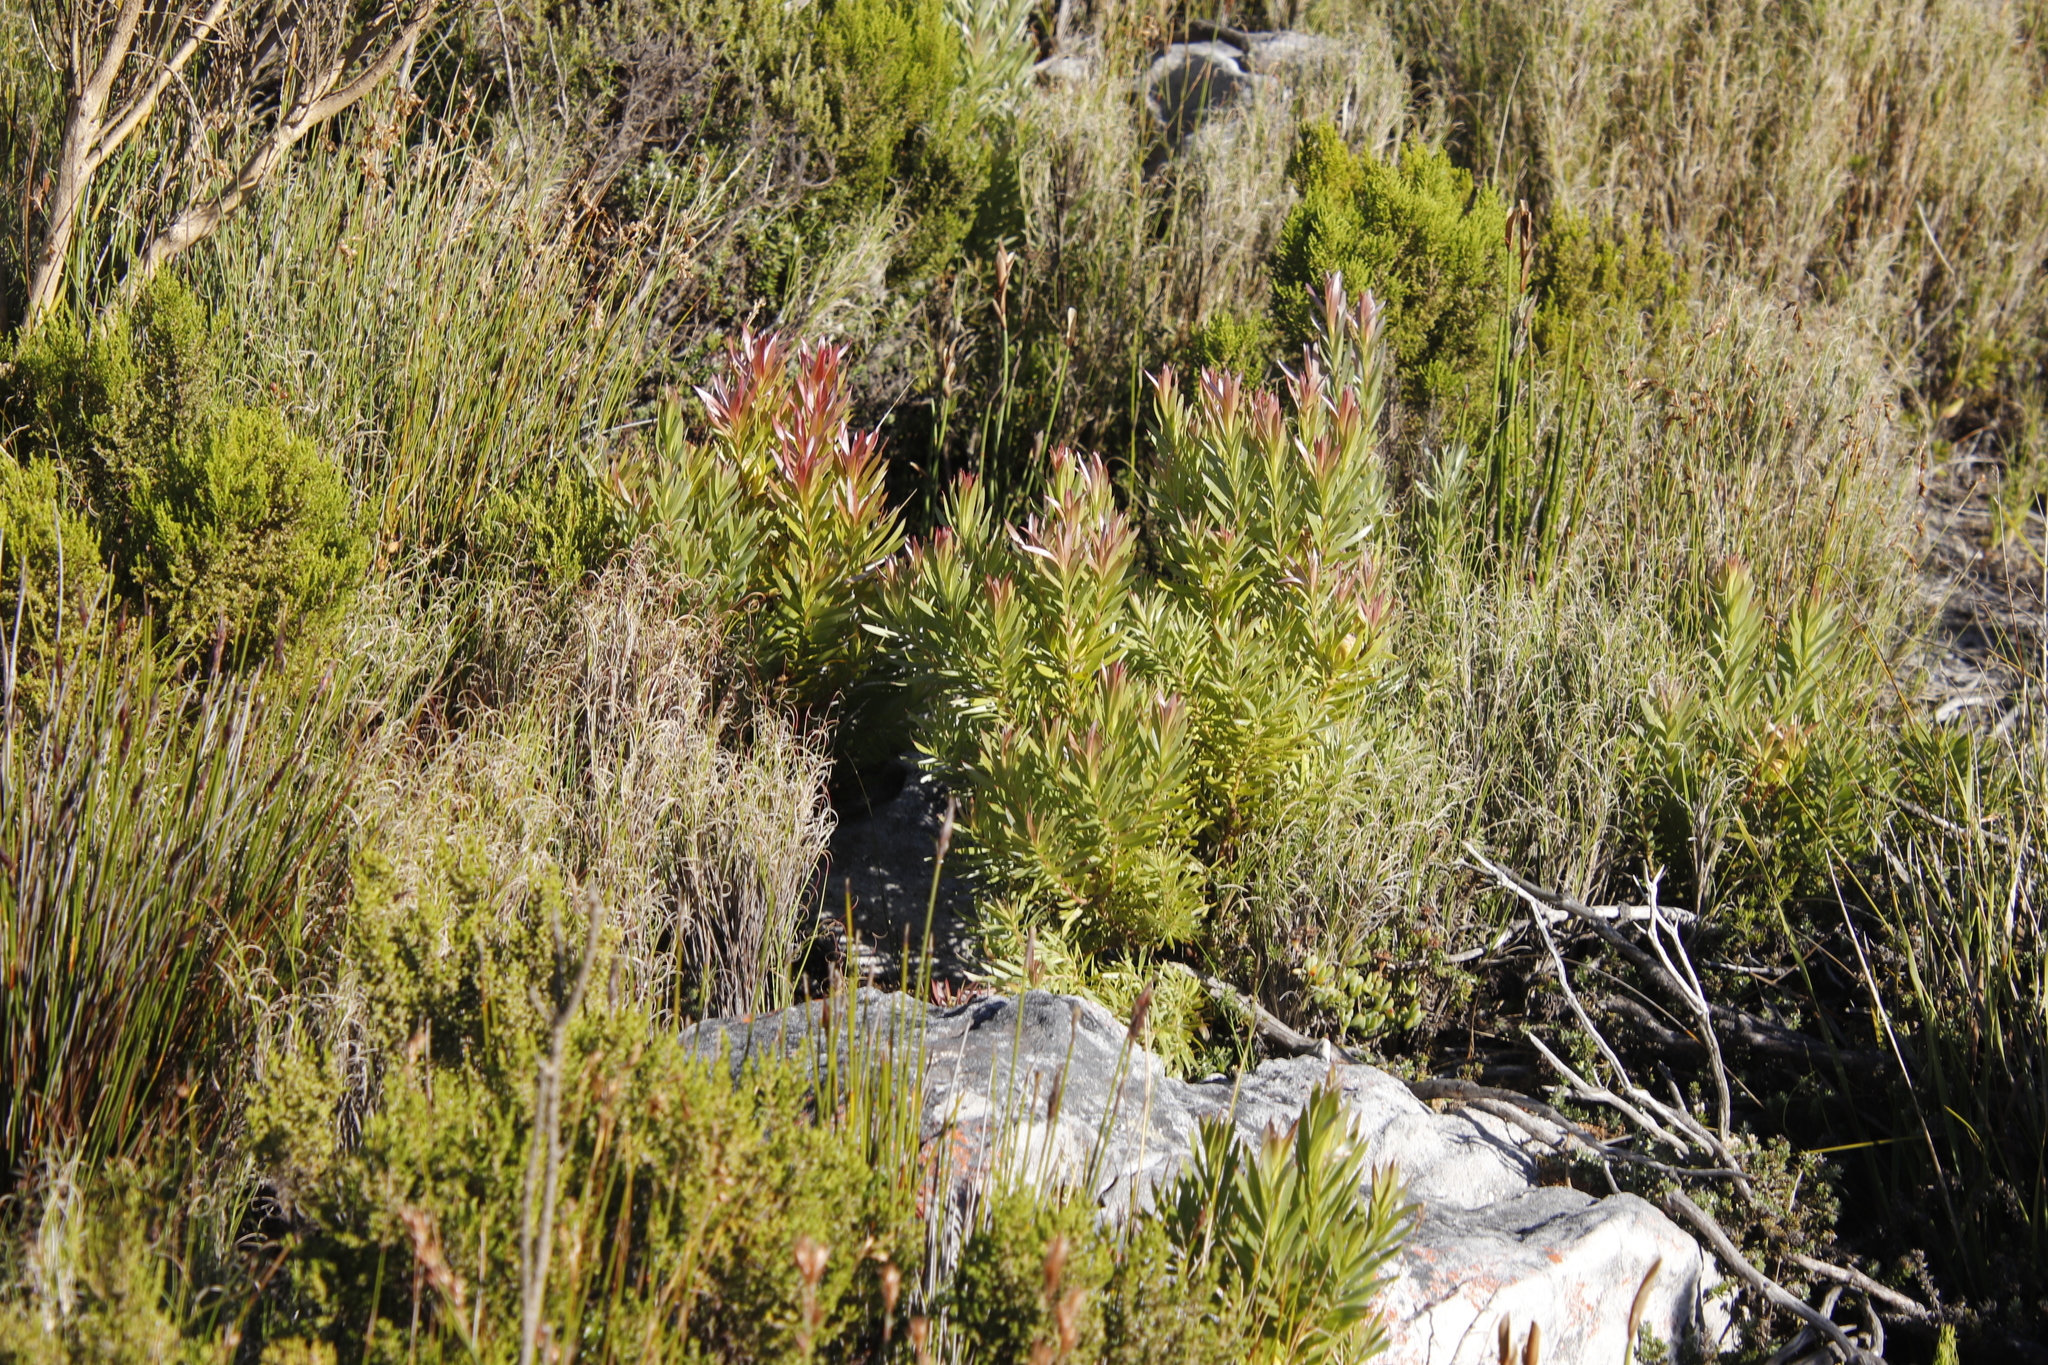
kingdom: Plantae
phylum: Tracheophyta
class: Magnoliopsida
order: Proteales
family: Proteaceae
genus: Leucadendron
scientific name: Leucadendron xanthoconus
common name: Sickle-leaf conebush
